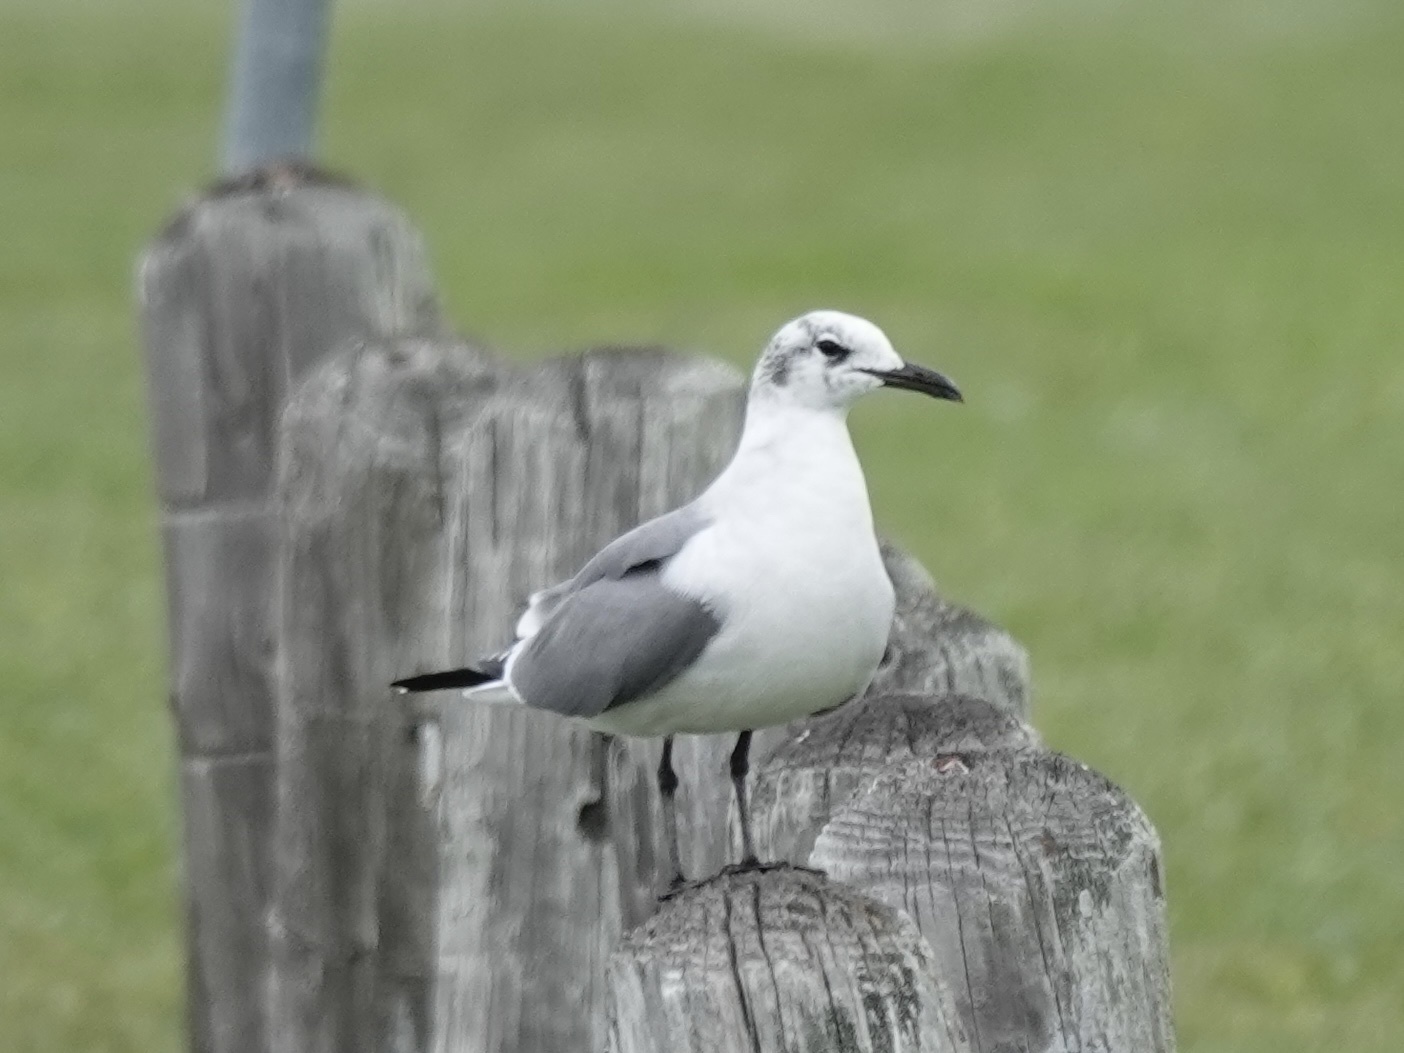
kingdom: Animalia
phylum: Chordata
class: Aves
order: Charadriiformes
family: Laridae
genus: Leucophaeus
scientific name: Leucophaeus atricilla
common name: Laughing gull
